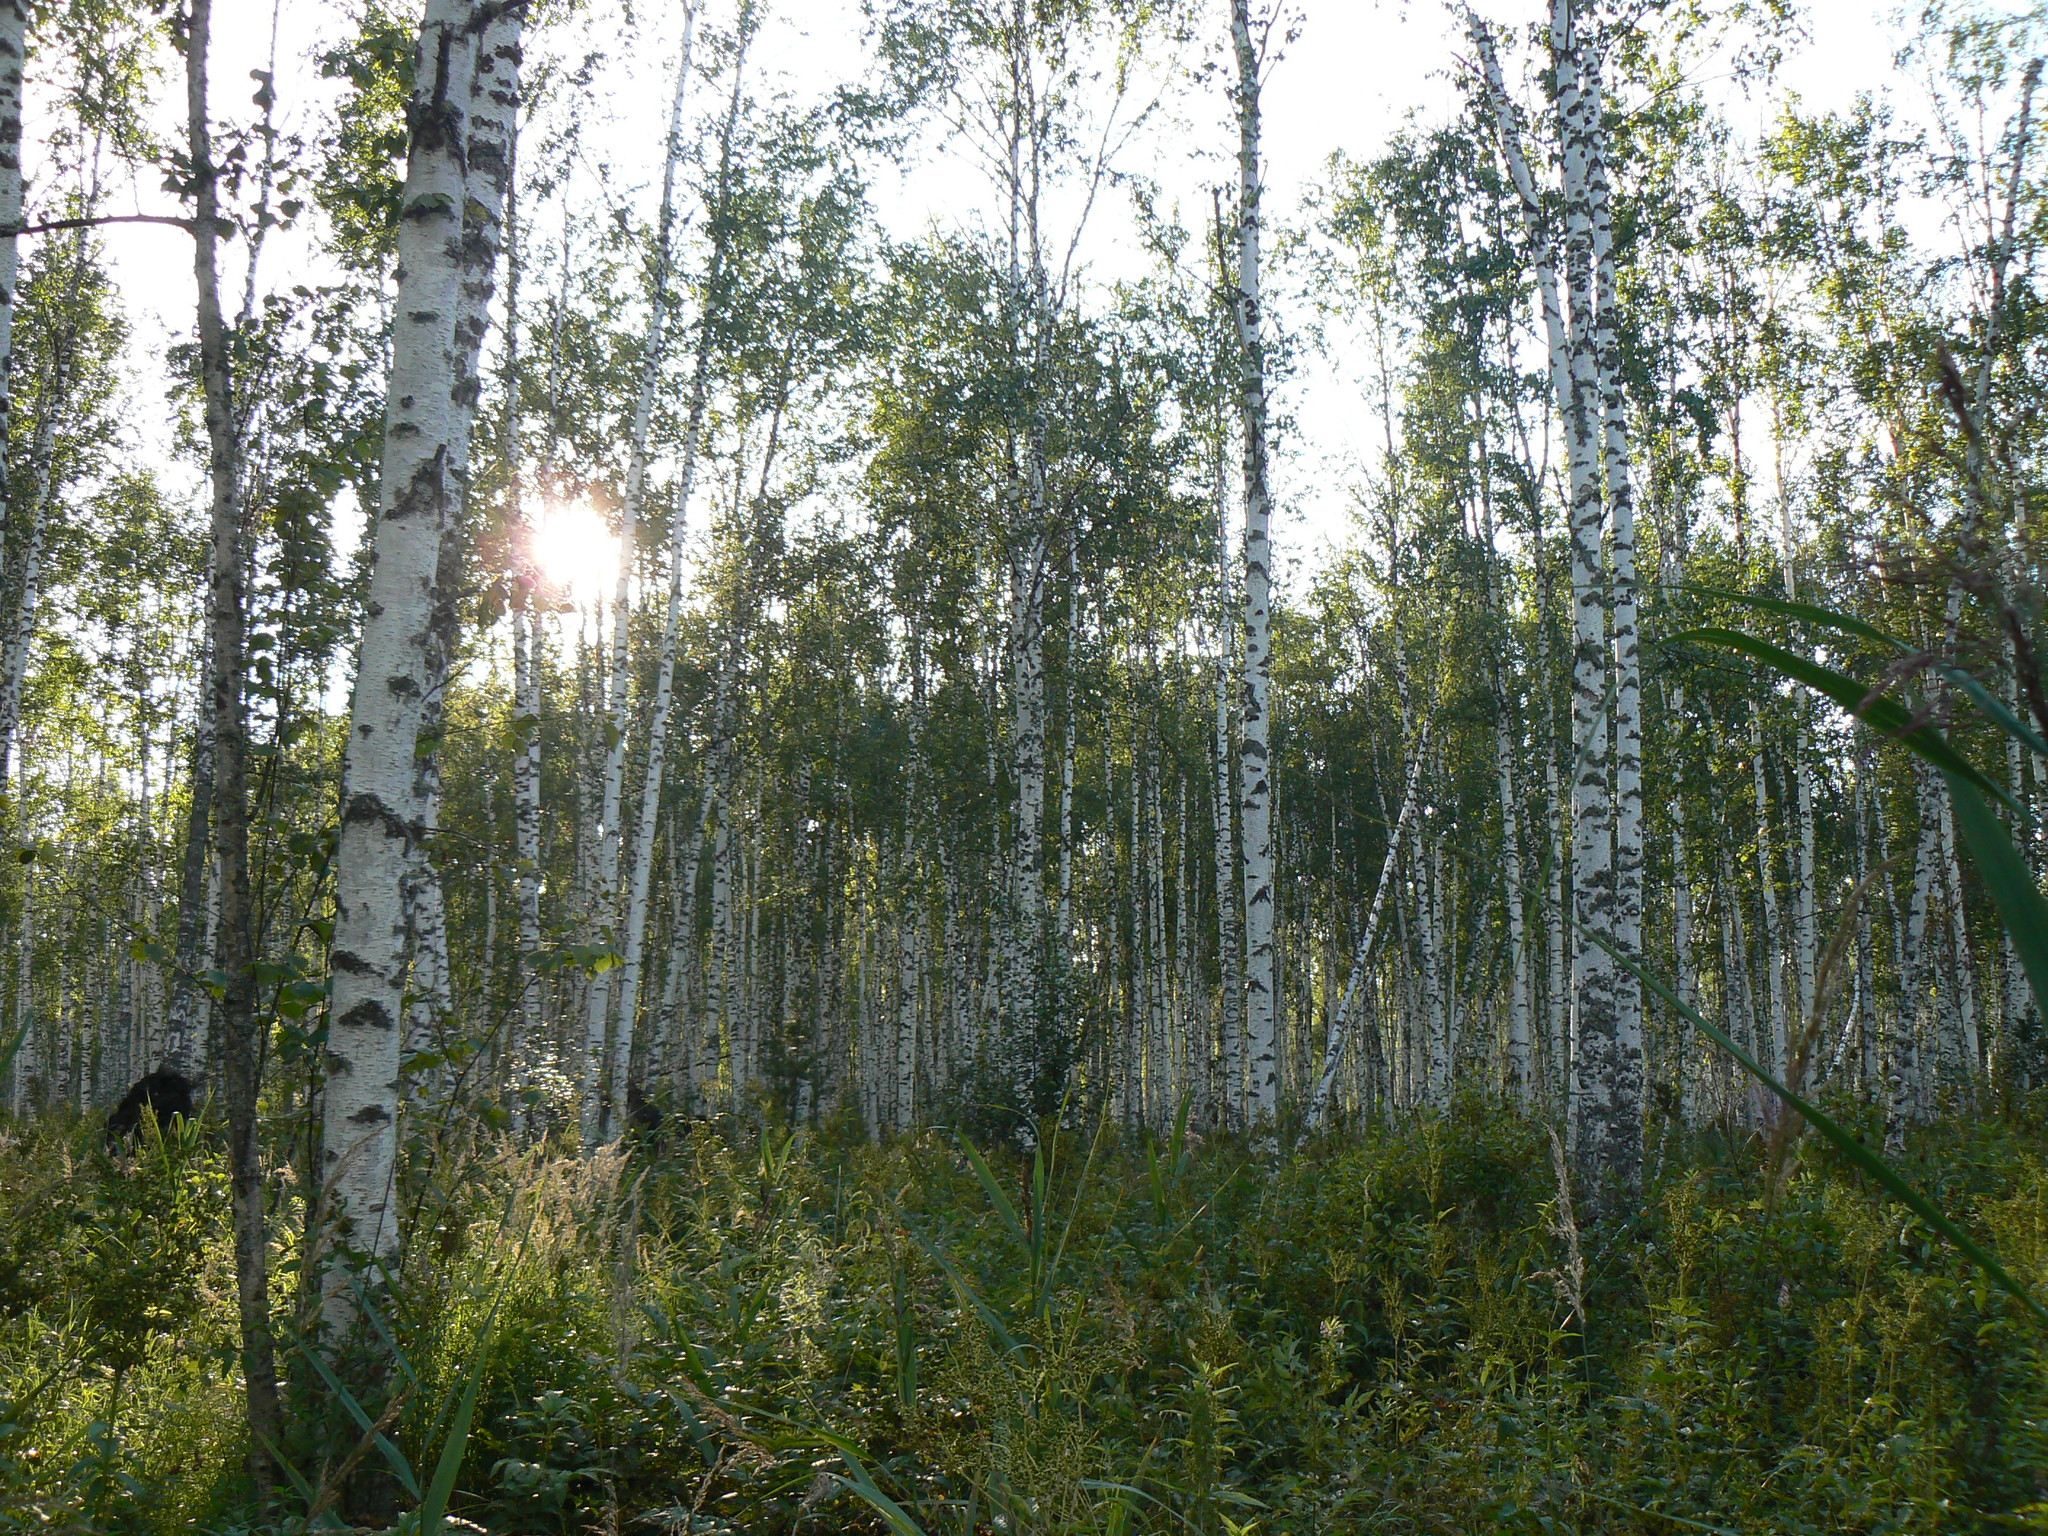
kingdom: Plantae
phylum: Tracheophyta
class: Magnoliopsida
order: Fagales
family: Betulaceae
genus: Betula
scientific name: Betula pubescens
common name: Downy birch
